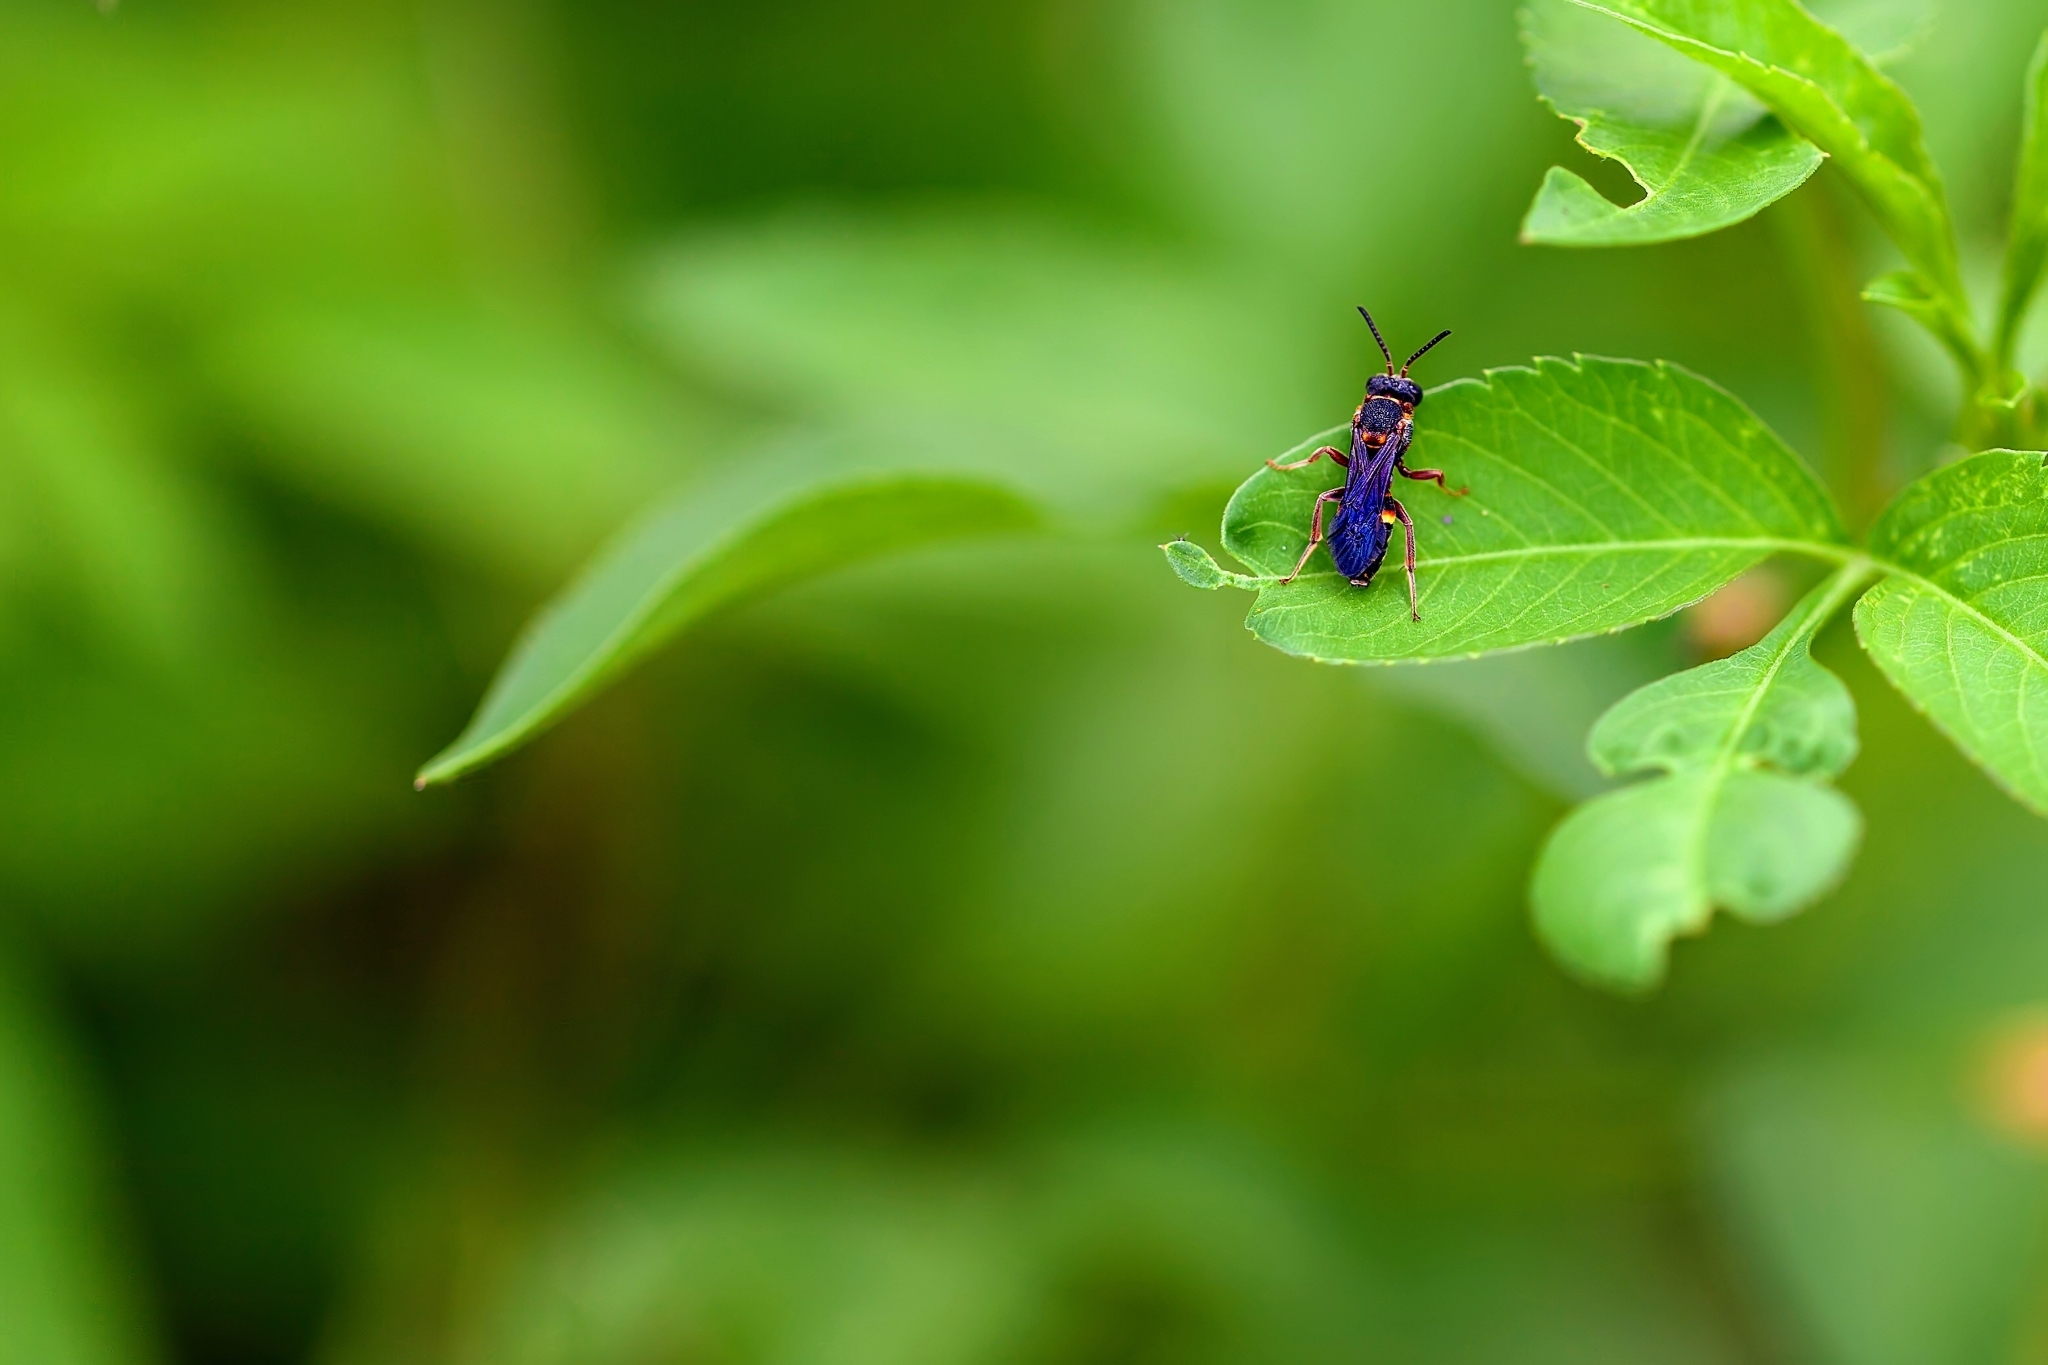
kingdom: Animalia
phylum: Arthropoda
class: Insecta
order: Hymenoptera
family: Apidae
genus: Nomada
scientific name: Nomada fervida
